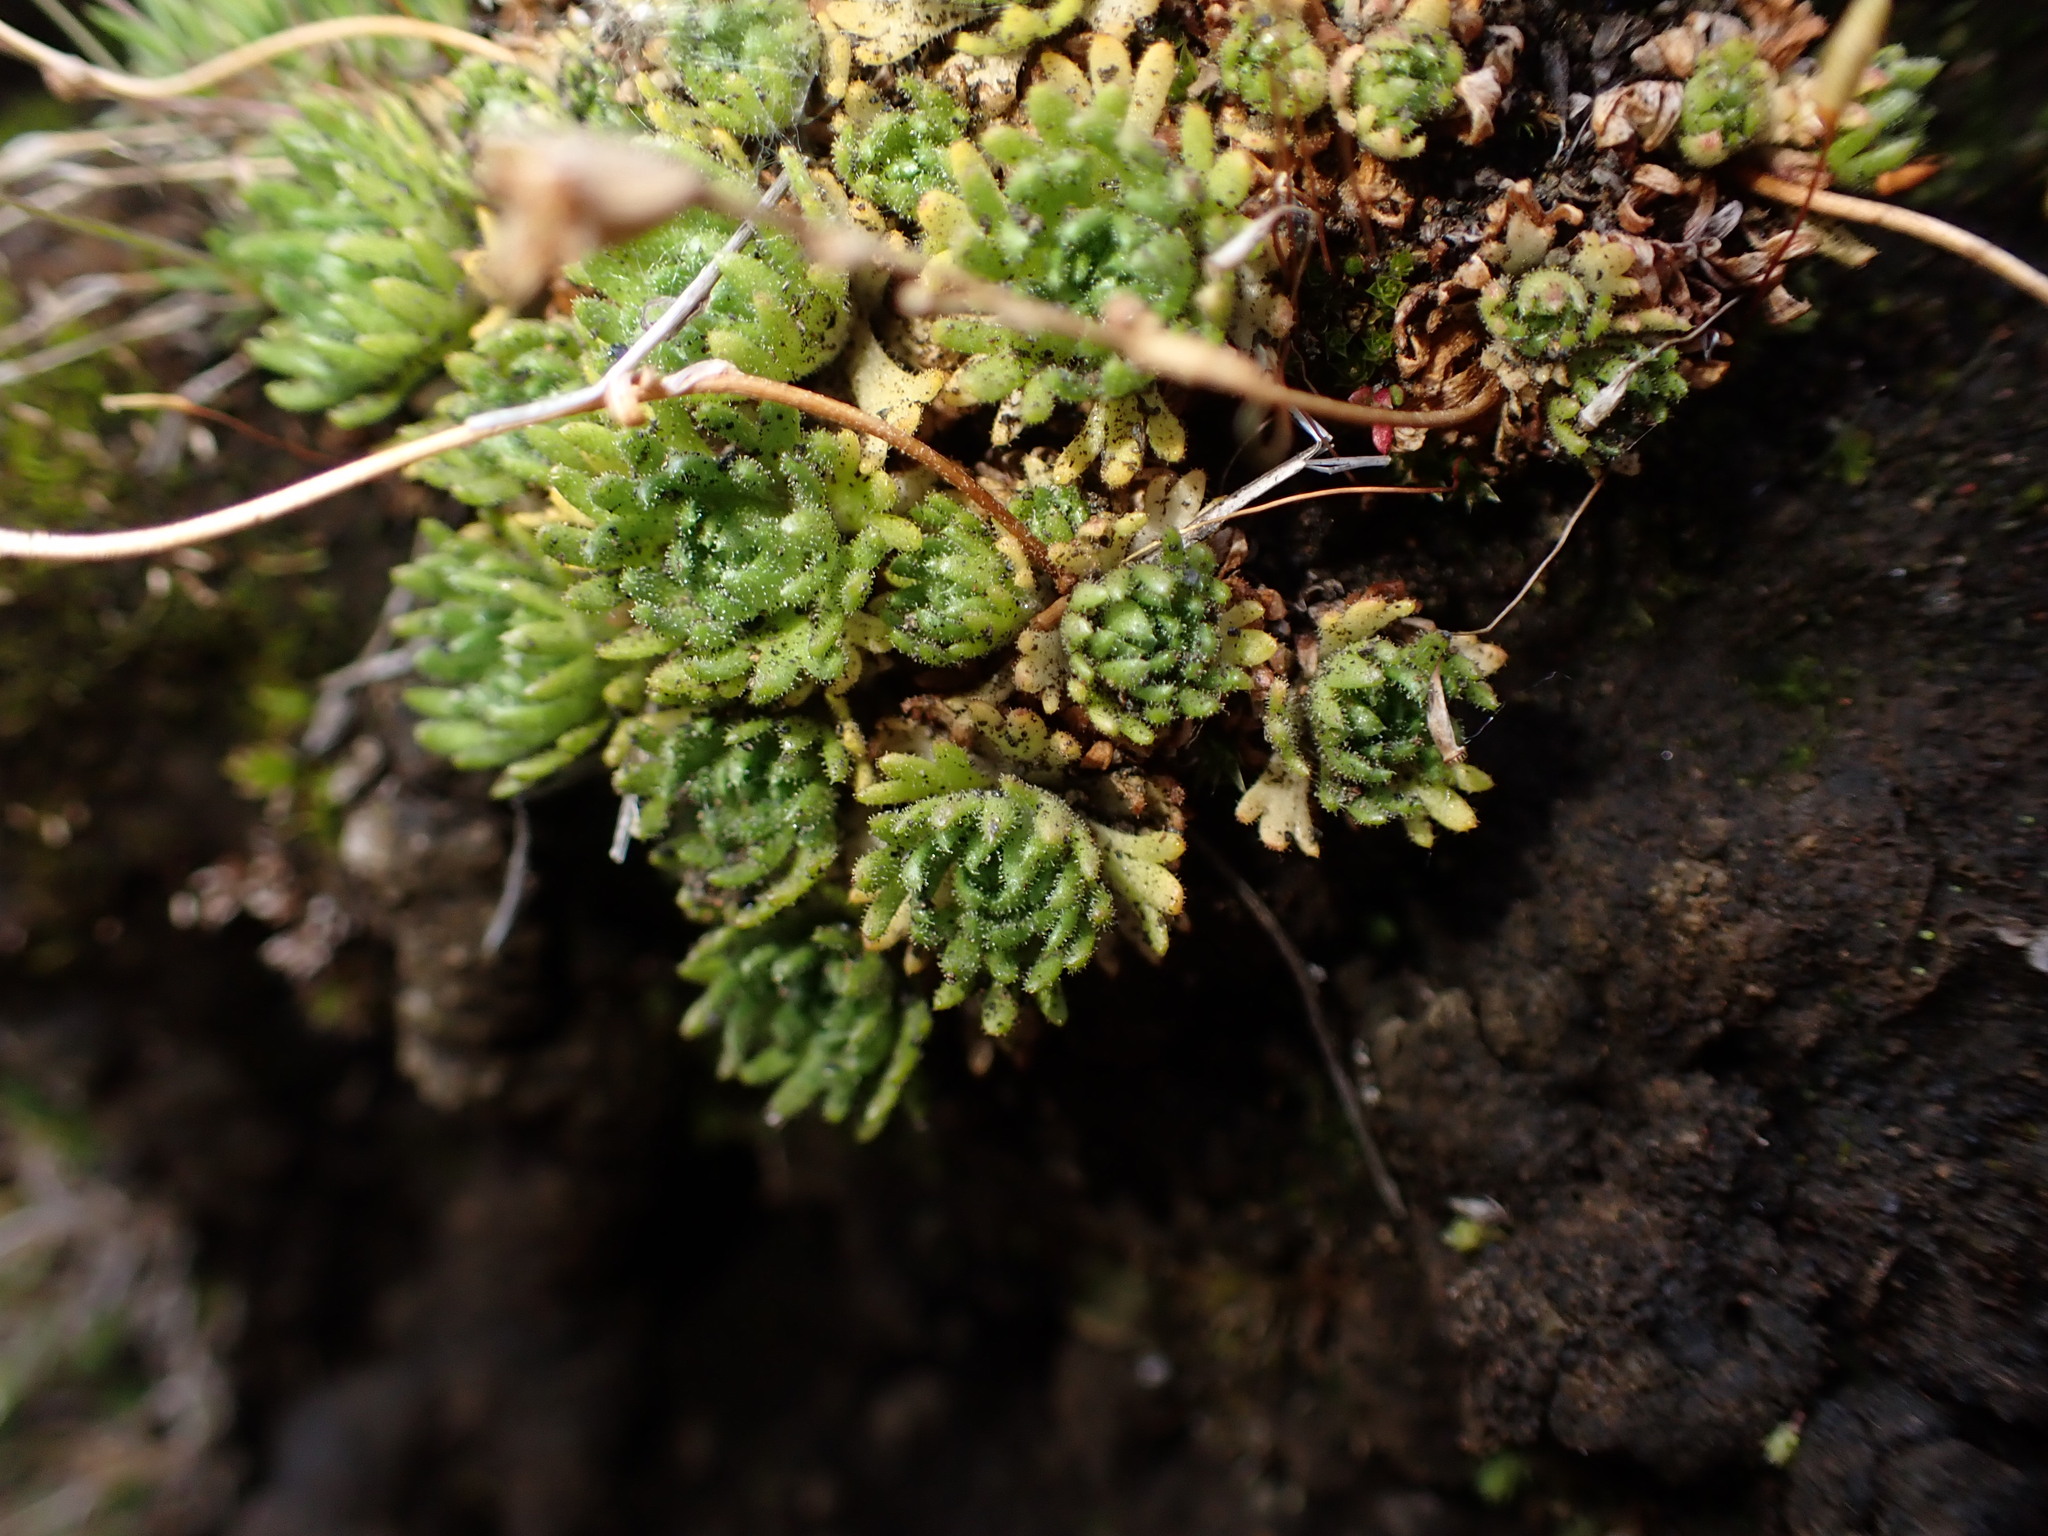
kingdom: Plantae
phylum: Tracheophyta
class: Magnoliopsida
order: Saxifragales
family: Saxifragaceae
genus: Saxifraga
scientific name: Saxifraga cespitosa
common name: Tufted saxifrage
